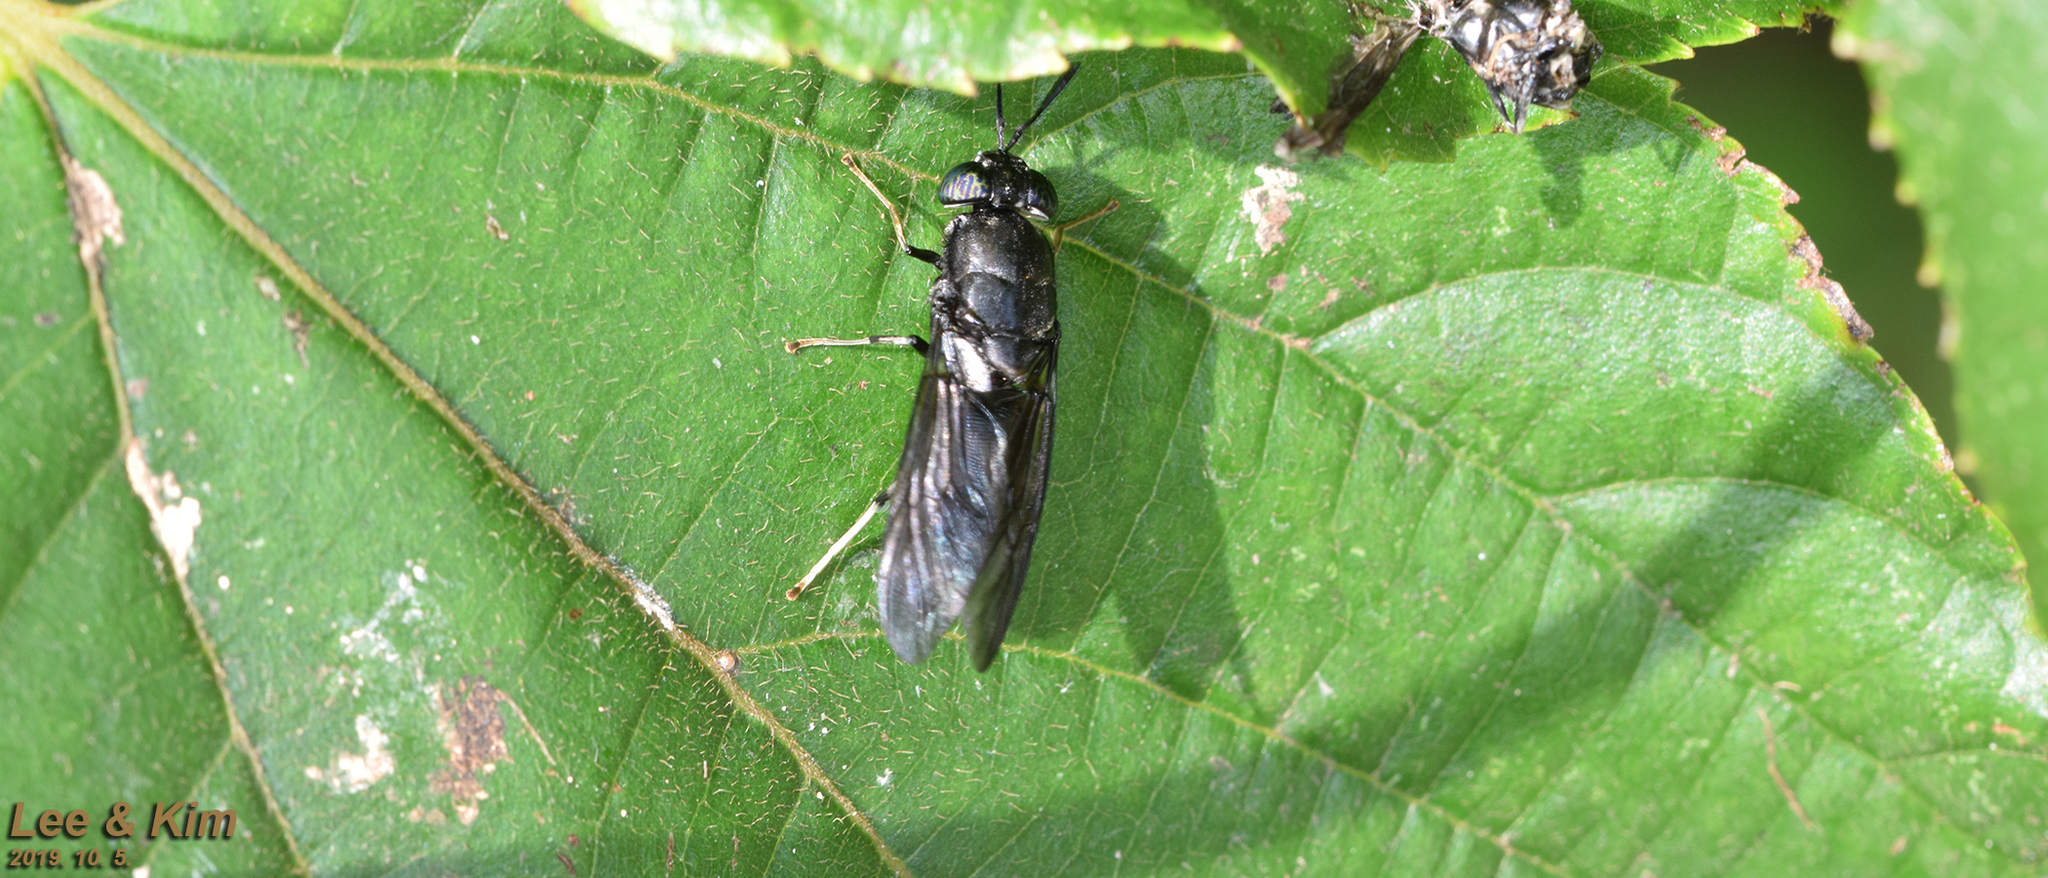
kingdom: Animalia
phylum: Arthropoda
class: Insecta
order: Diptera
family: Stratiomyidae
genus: Hermetia
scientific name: Hermetia illucens
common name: Black soldier fly
